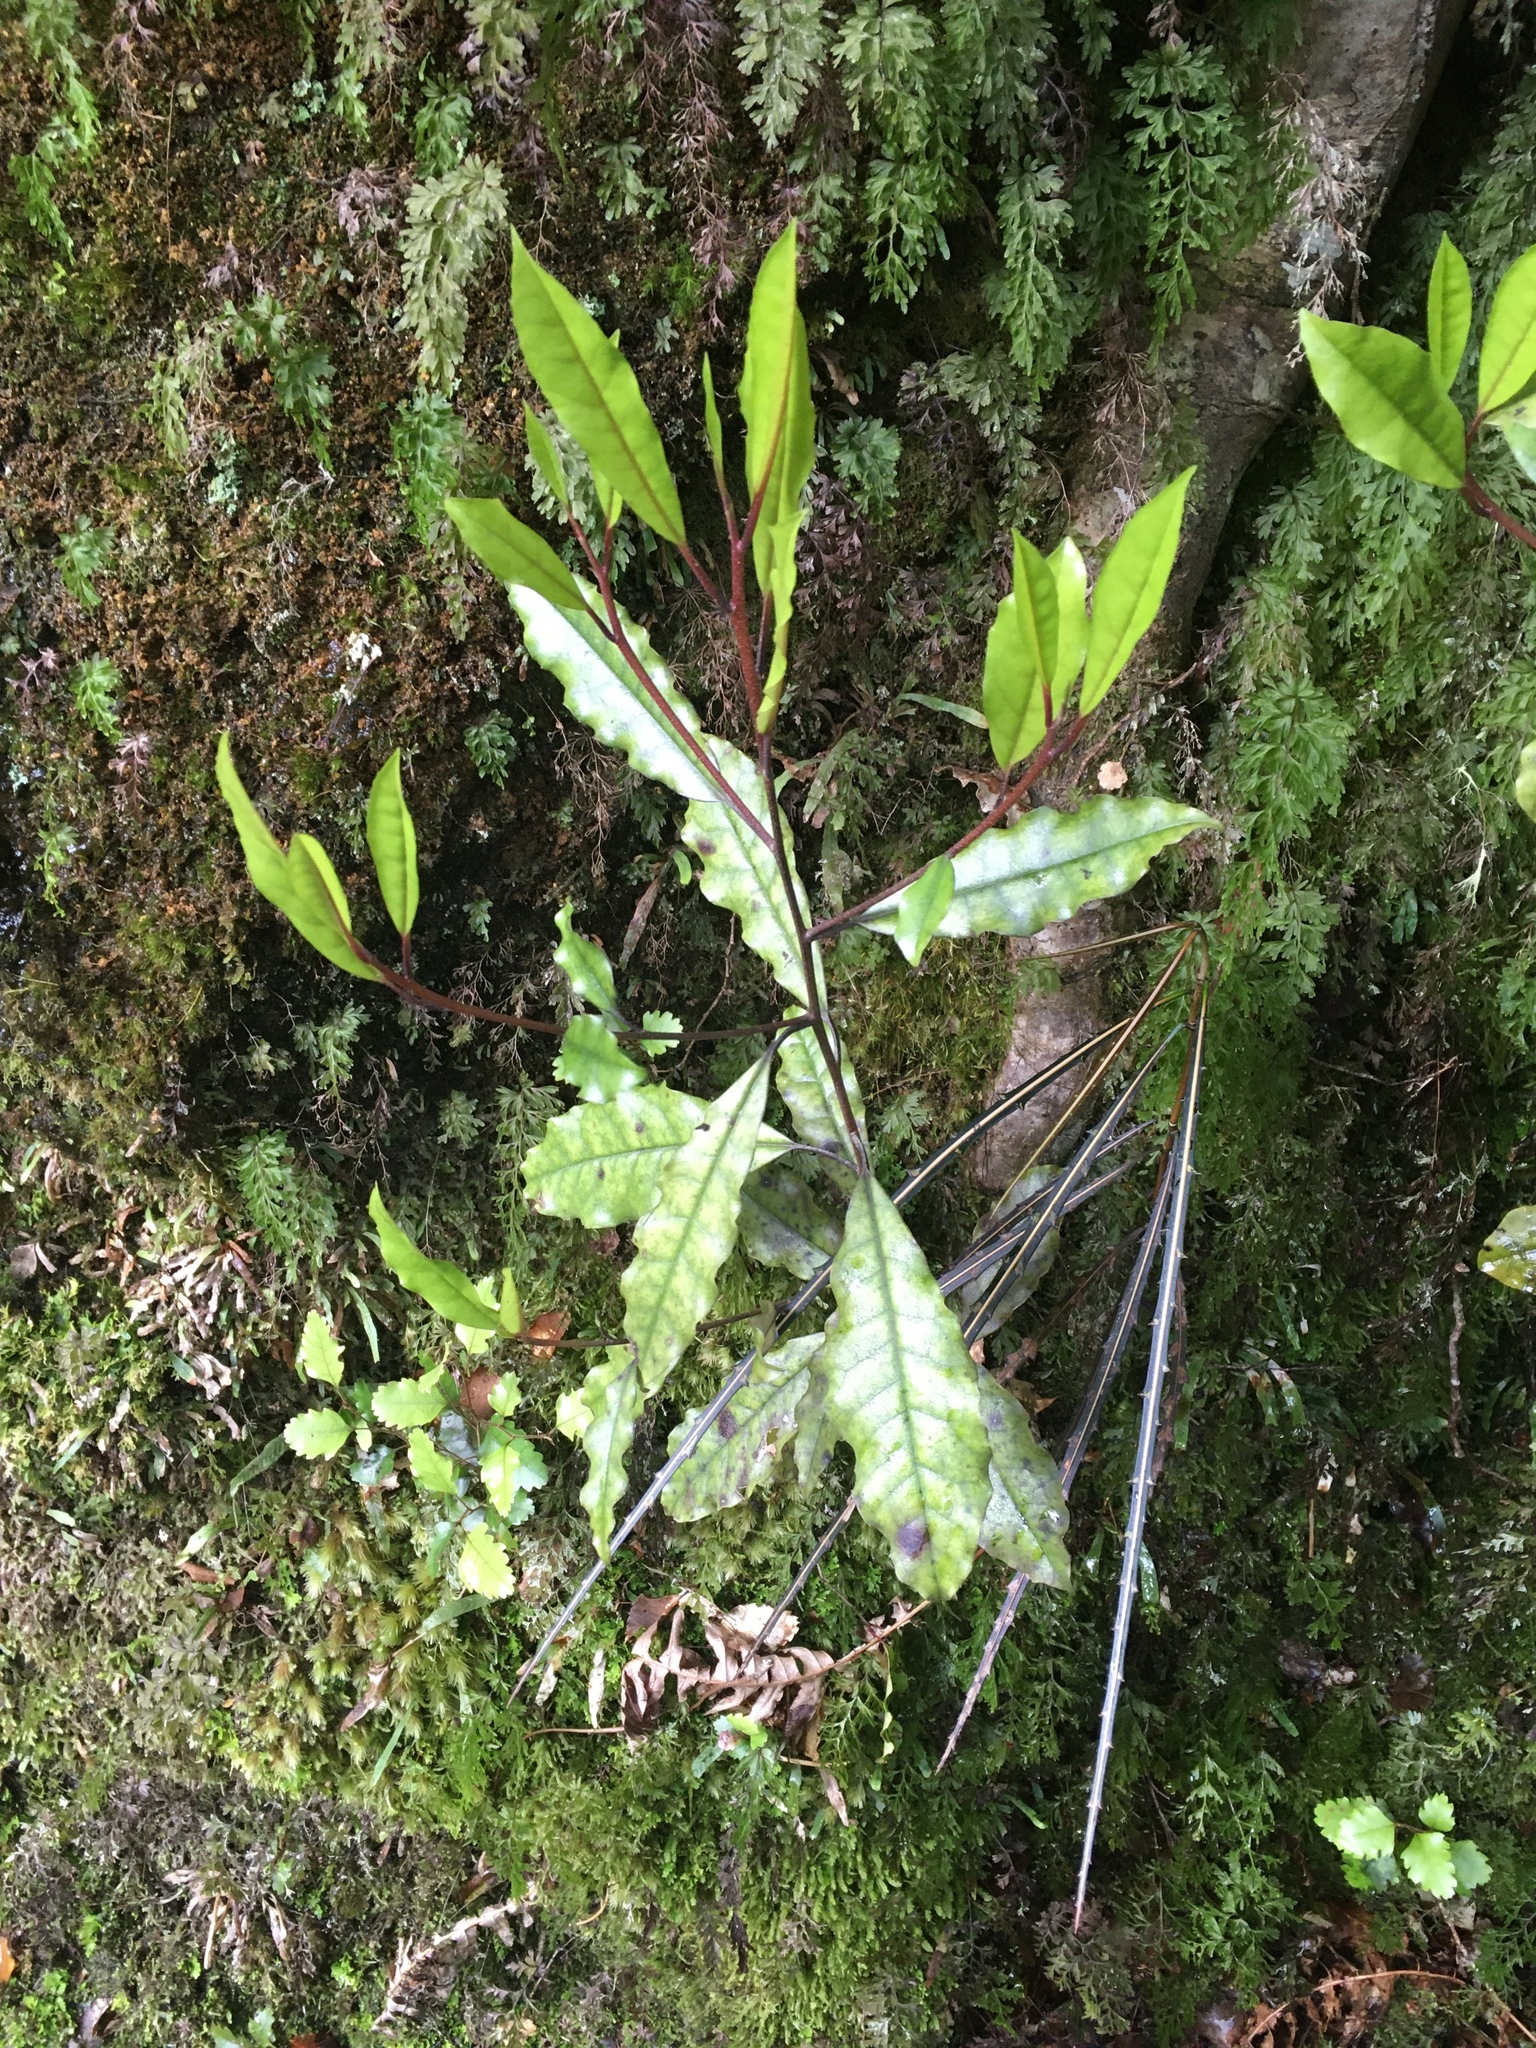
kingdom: Plantae
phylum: Tracheophyta
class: Magnoliopsida
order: Paracryphiales
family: Paracryphiaceae
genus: Quintinia
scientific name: Quintinia serrata
